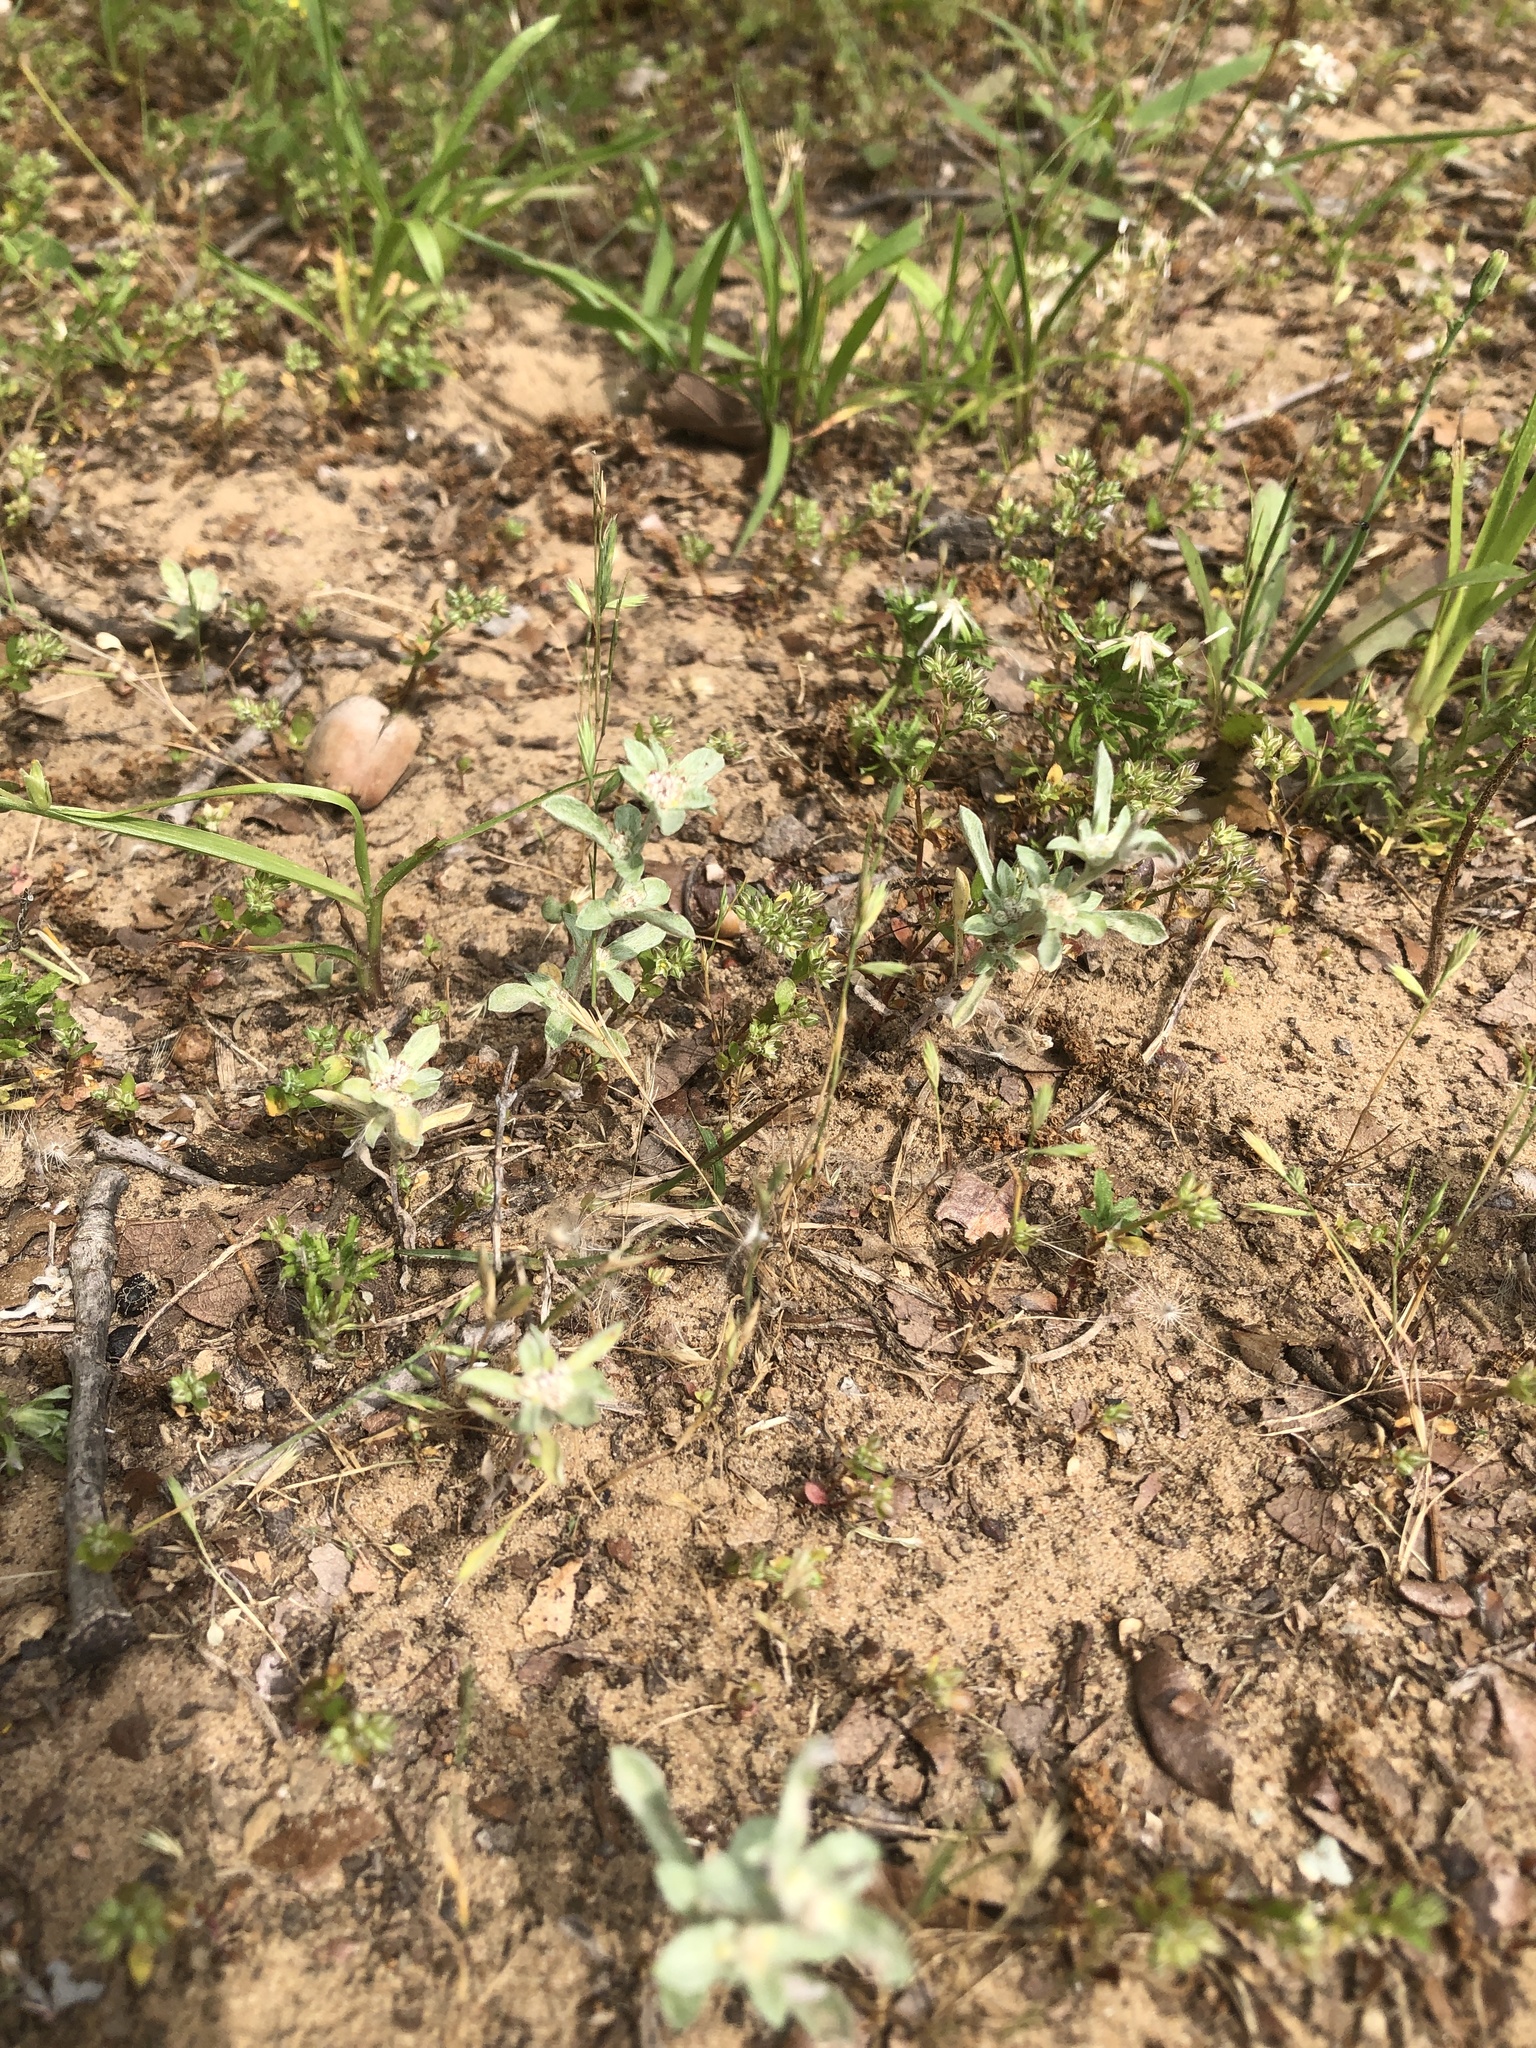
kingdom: Plantae
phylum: Tracheophyta
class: Magnoliopsida
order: Asterales
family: Asteraceae
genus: Diaperia
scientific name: Diaperia candida
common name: Silver rabbit-tobacco
